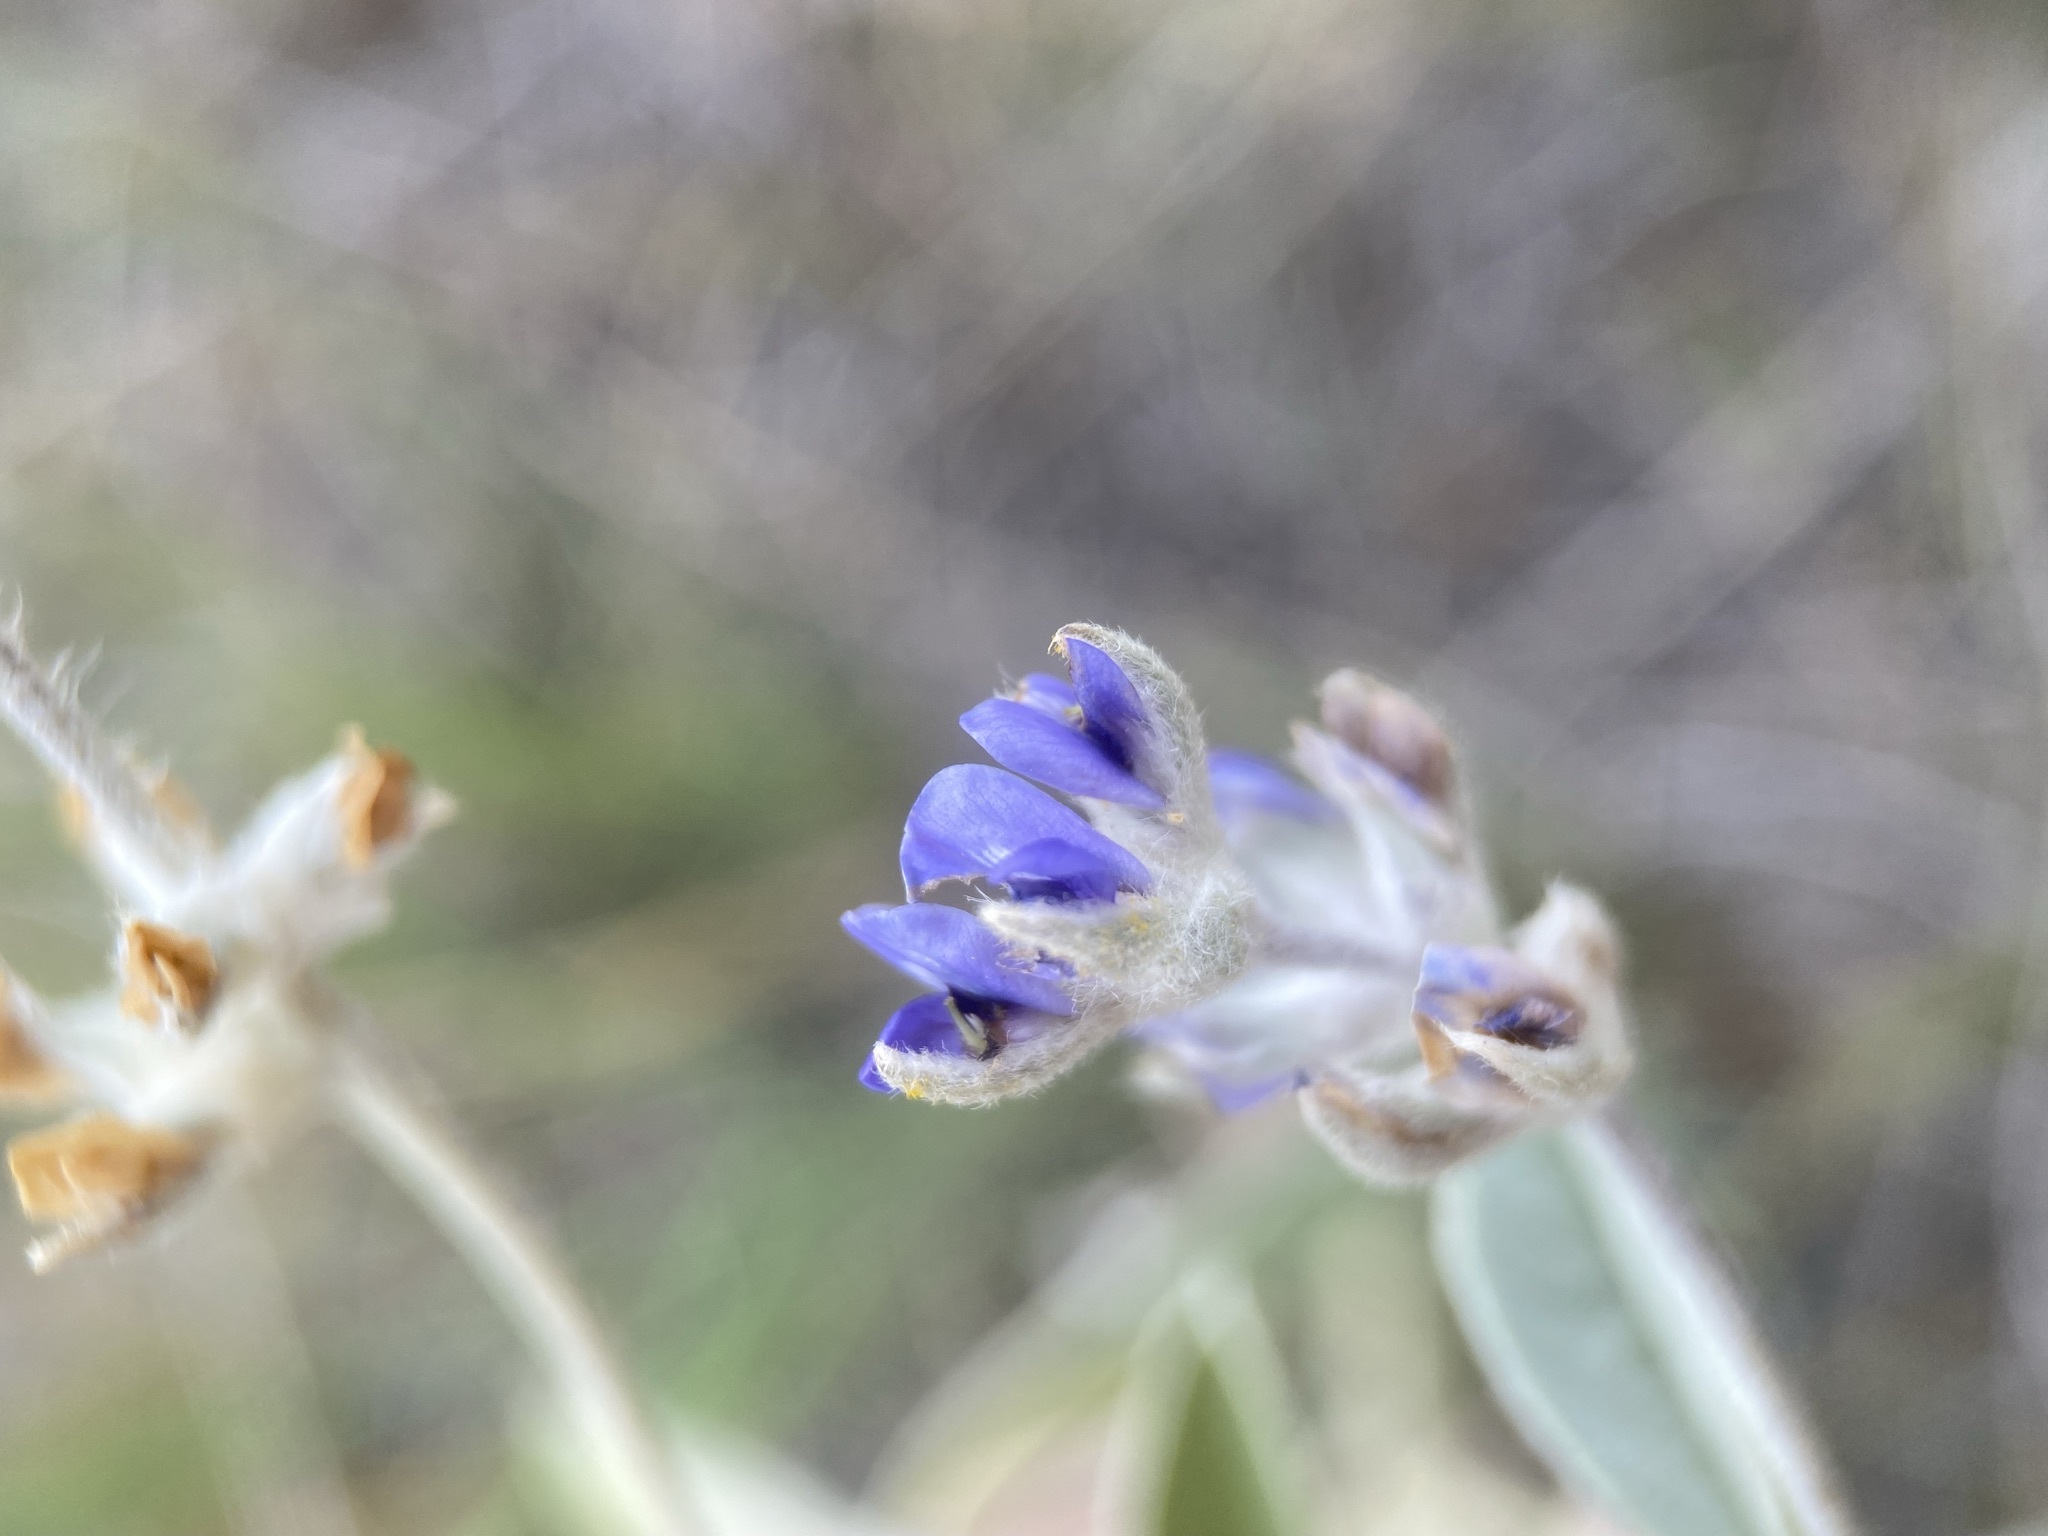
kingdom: Plantae
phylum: Tracheophyta
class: Magnoliopsida
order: Fabales
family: Fabaceae
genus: Pediomelum
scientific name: Pediomelum argophyllum
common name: Silver-leaved indian breadroot
